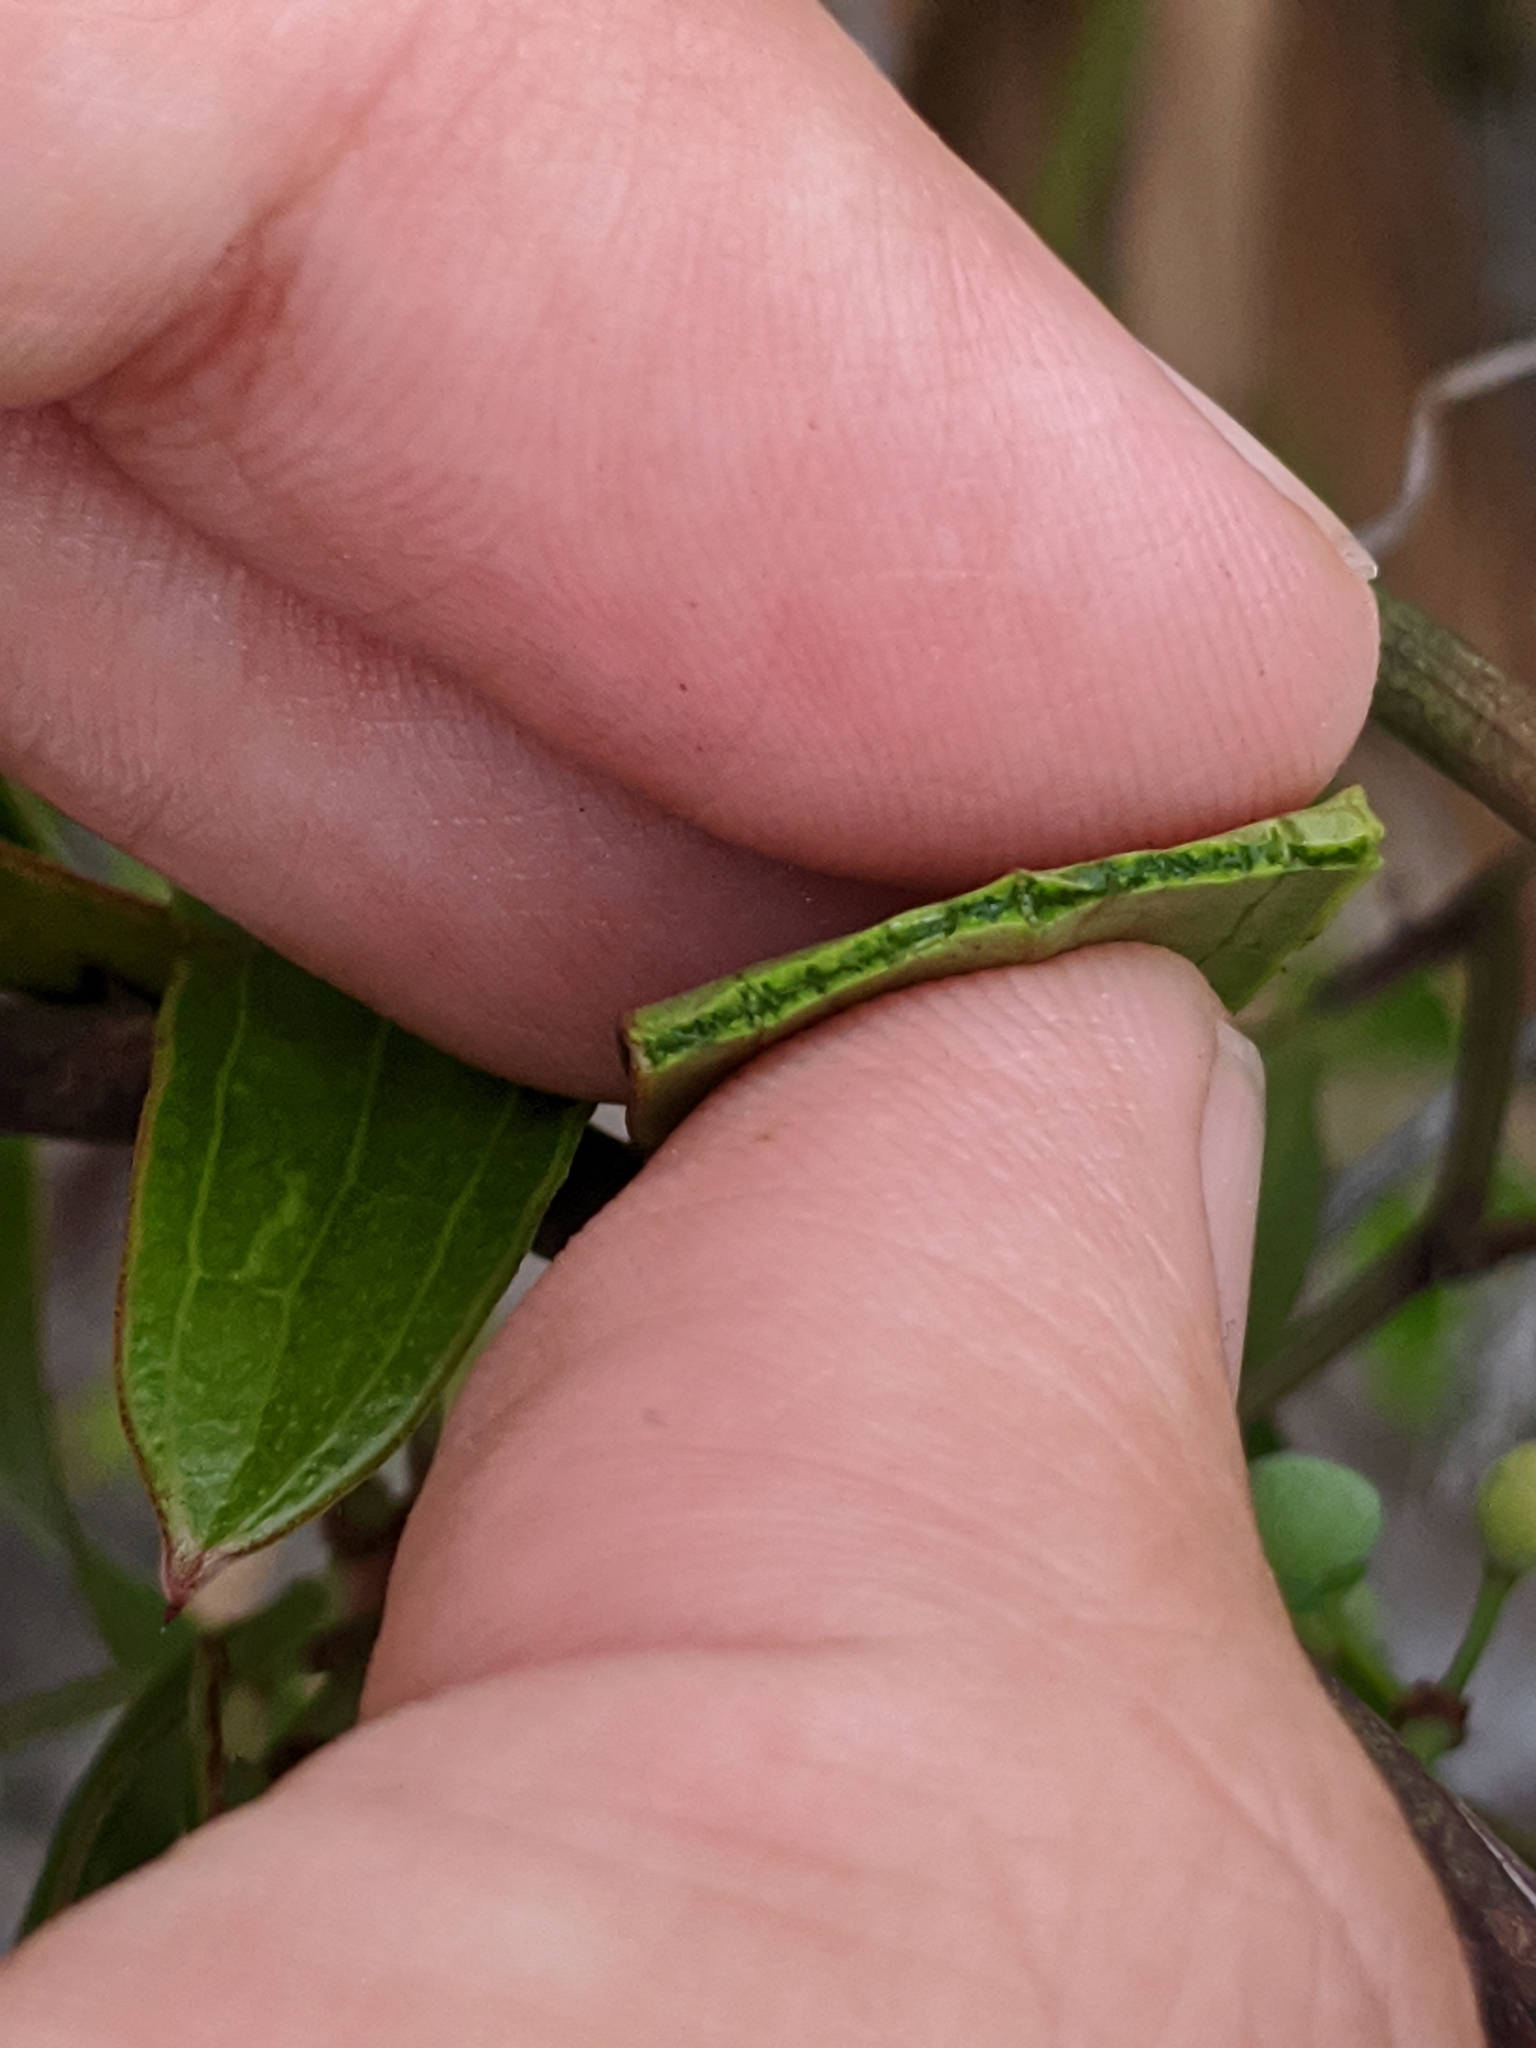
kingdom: Plantae
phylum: Tracheophyta
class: Liliopsida
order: Liliales
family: Smilacaceae
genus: Smilax
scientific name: Smilax auriculata
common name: Wild bamboo
